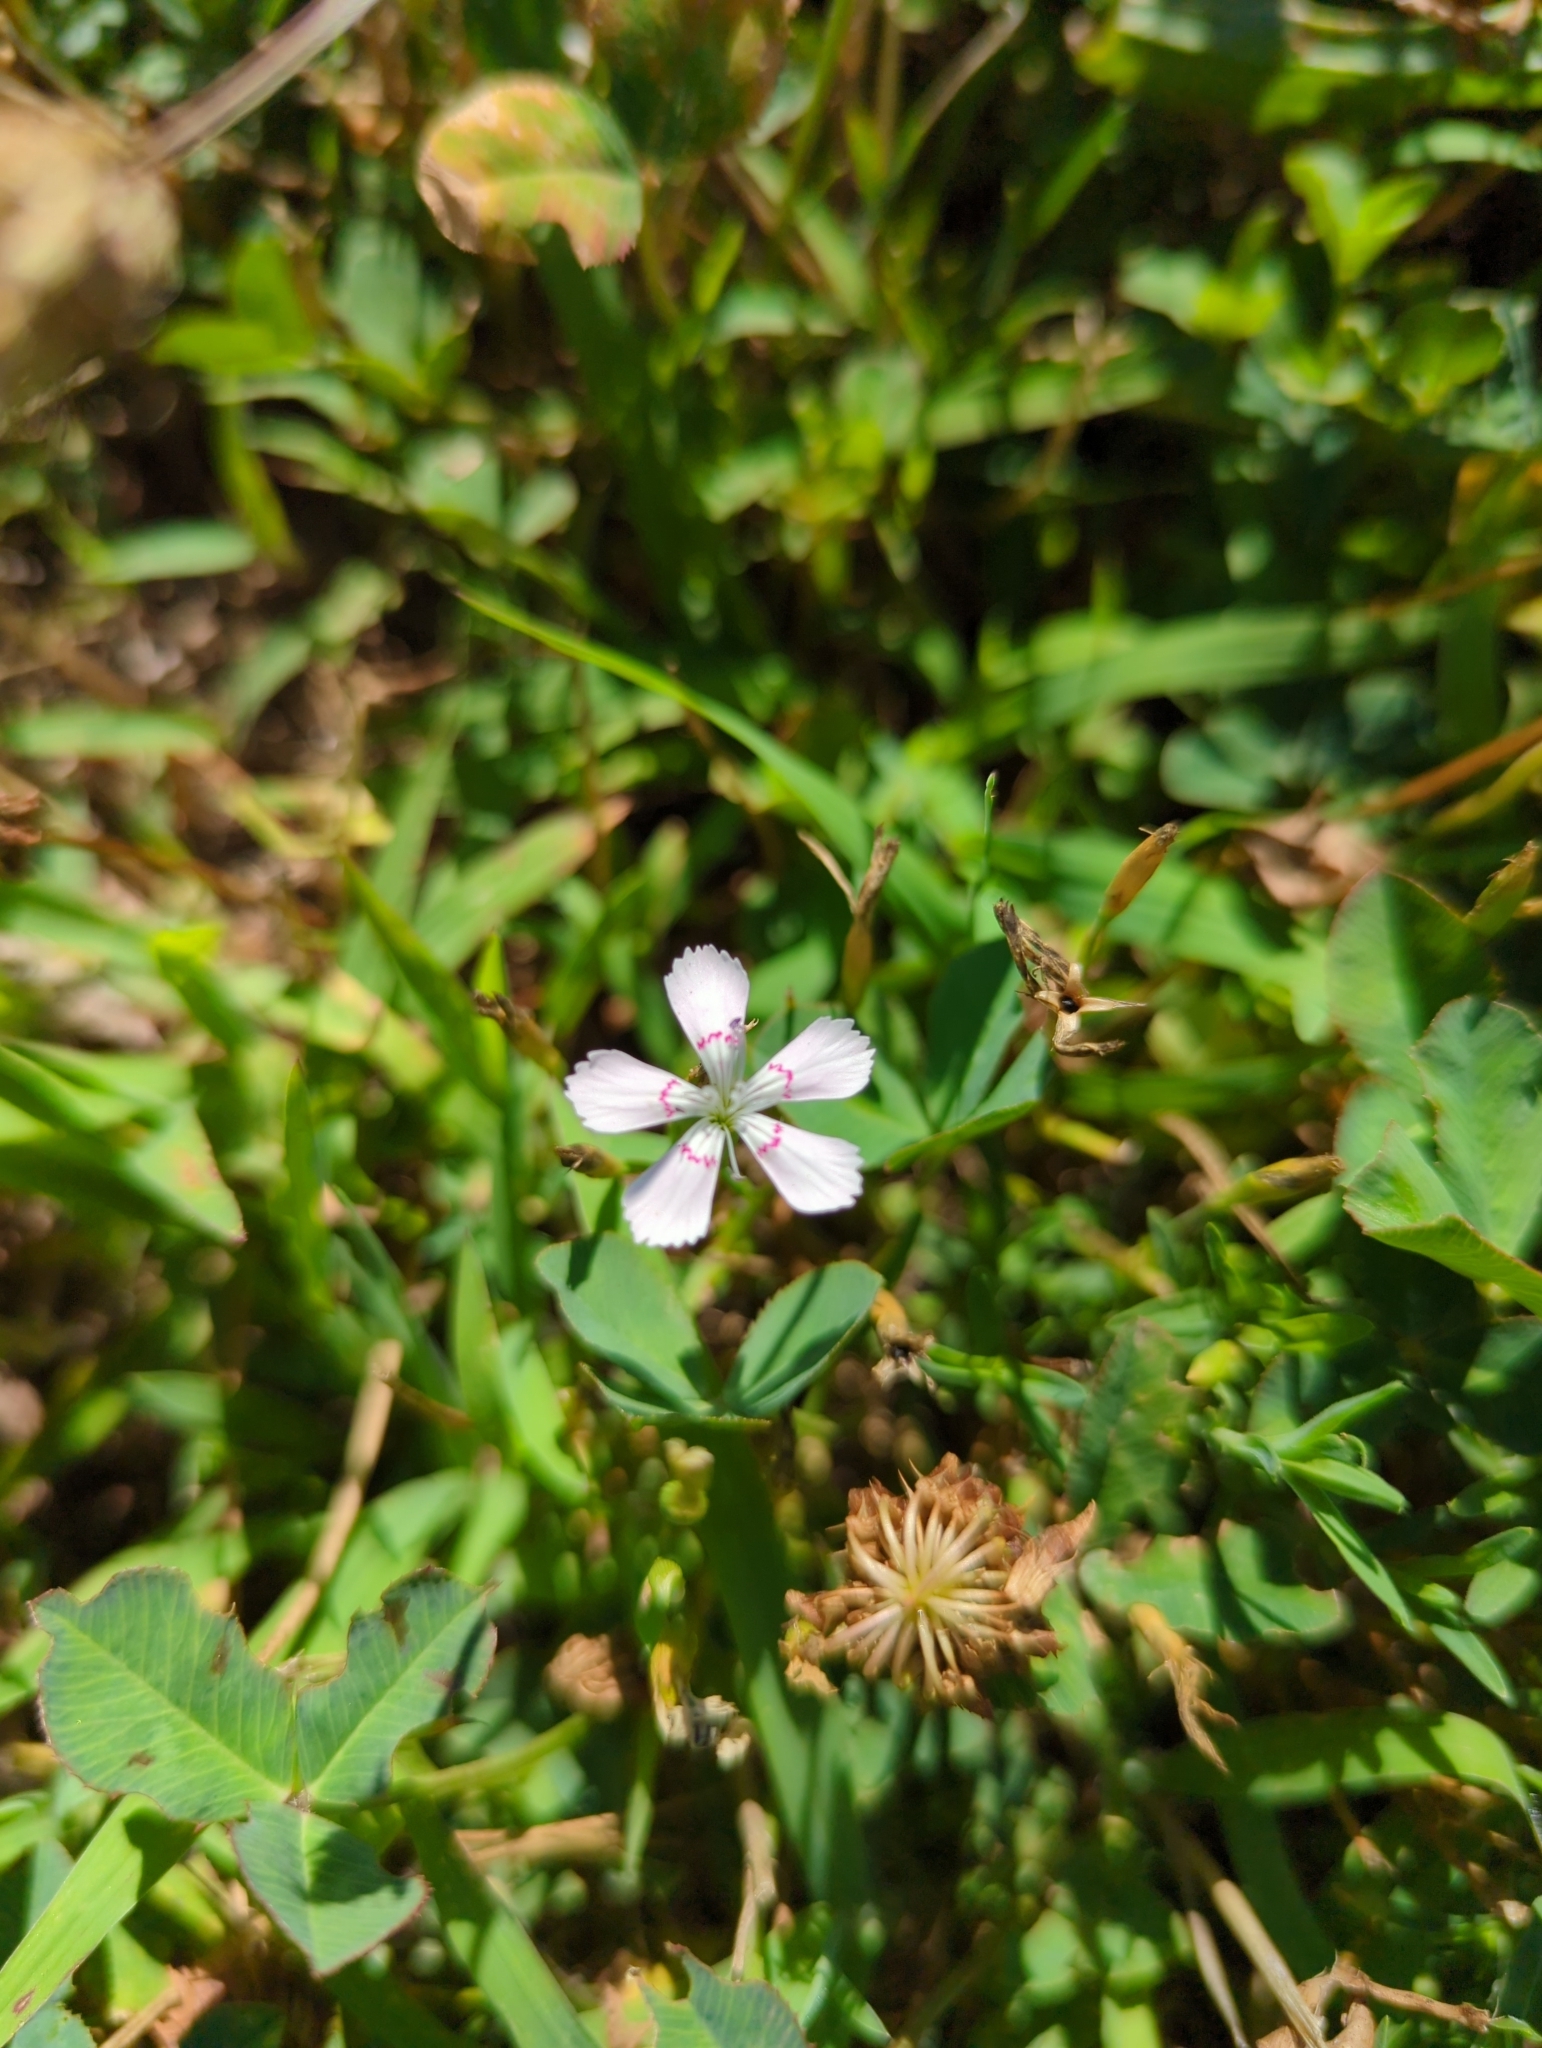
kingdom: Plantae
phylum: Tracheophyta
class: Magnoliopsida
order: Caryophyllales
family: Caryophyllaceae
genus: Dianthus
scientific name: Dianthus deltoides
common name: Maiden pink
